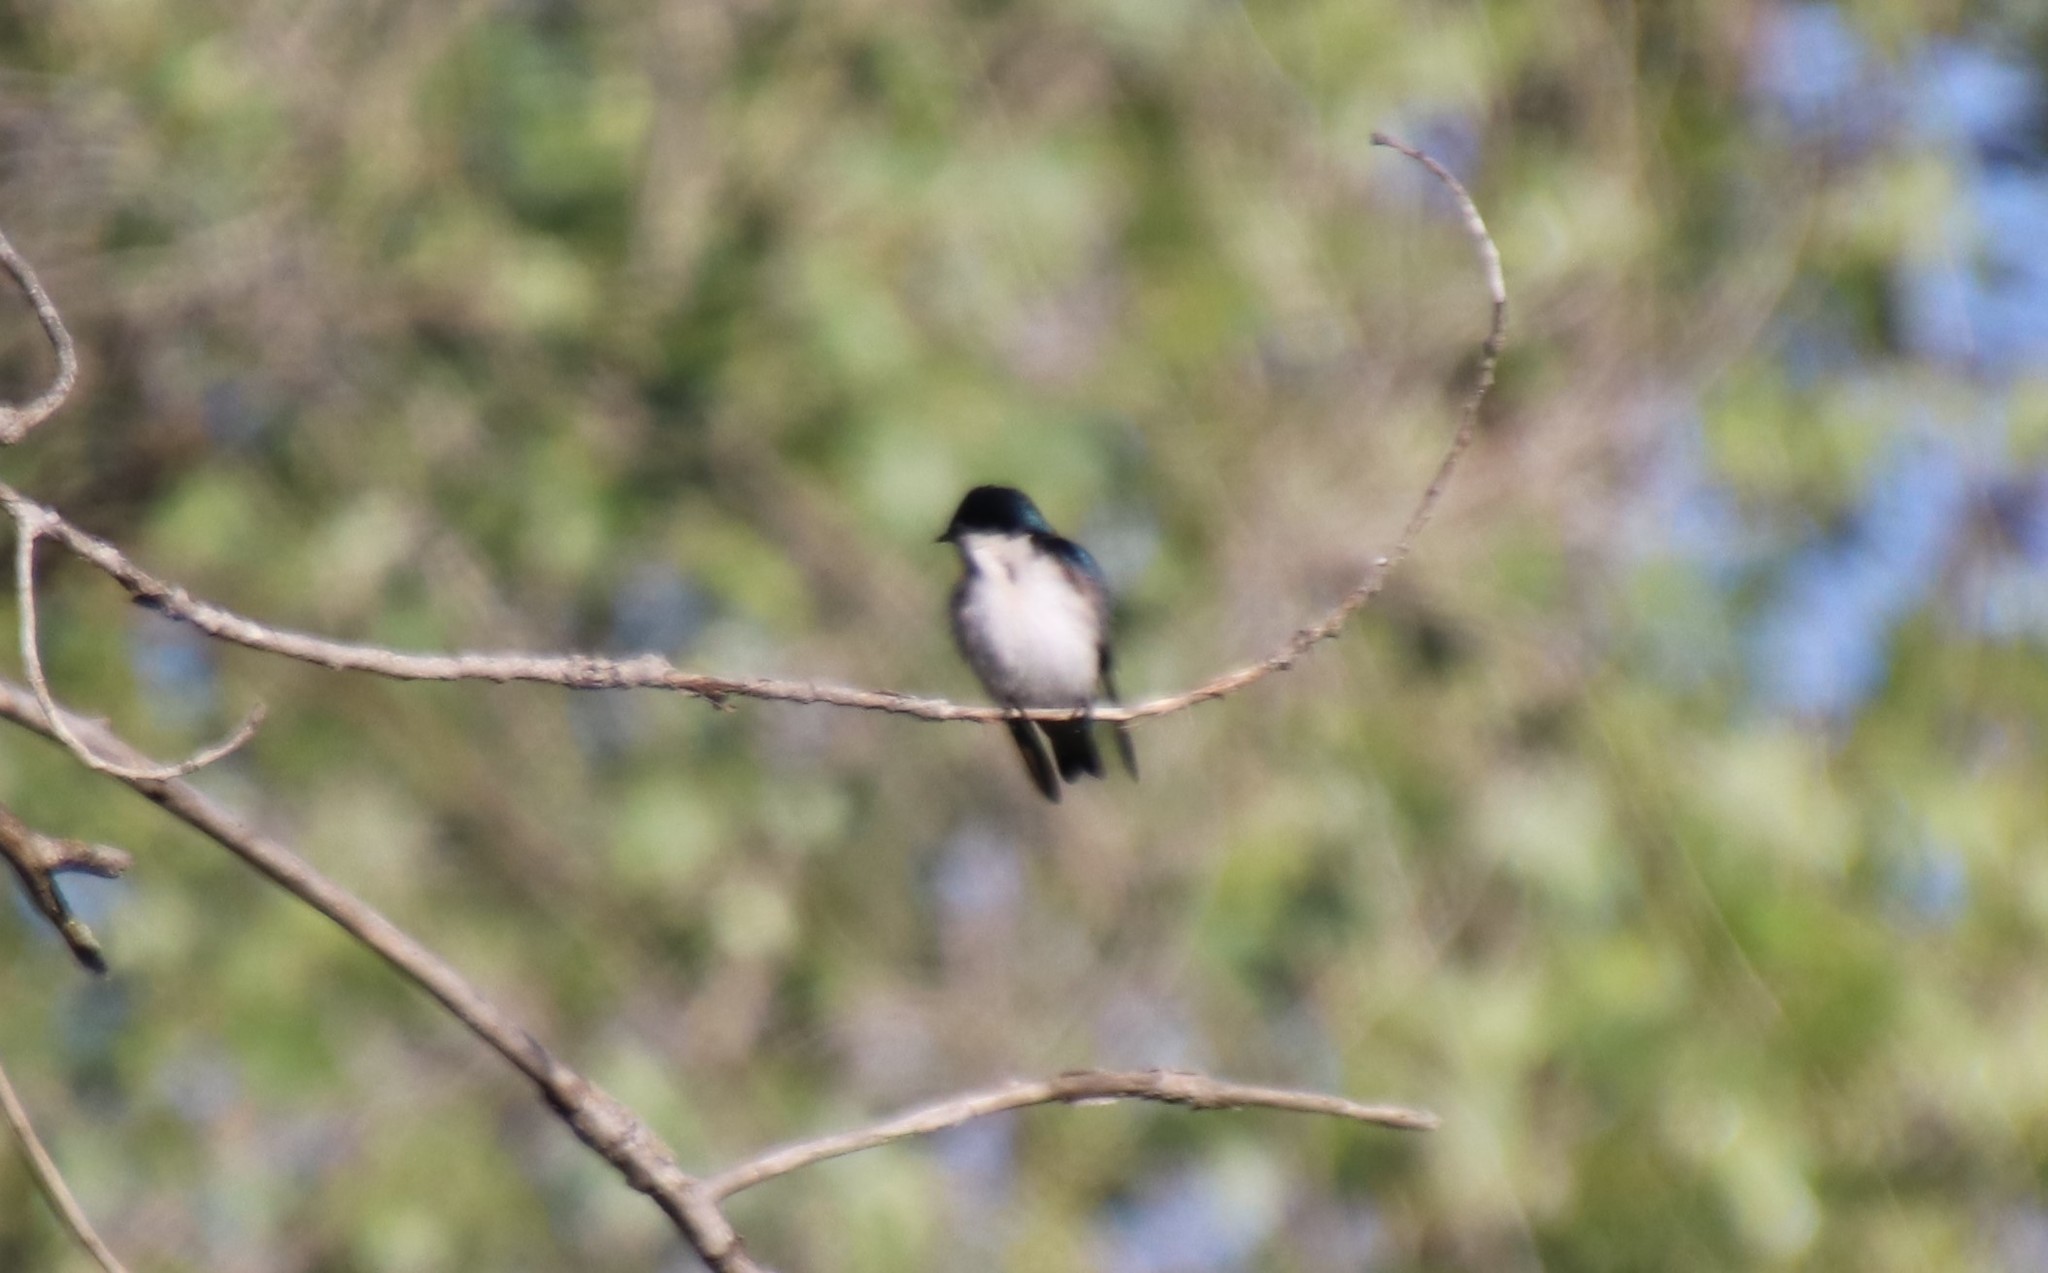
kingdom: Animalia
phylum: Chordata
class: Aves
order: Passeriformes
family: Hirundinidae
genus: Tachycineta
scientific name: Tachycineta bicolor
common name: Tree swallow
